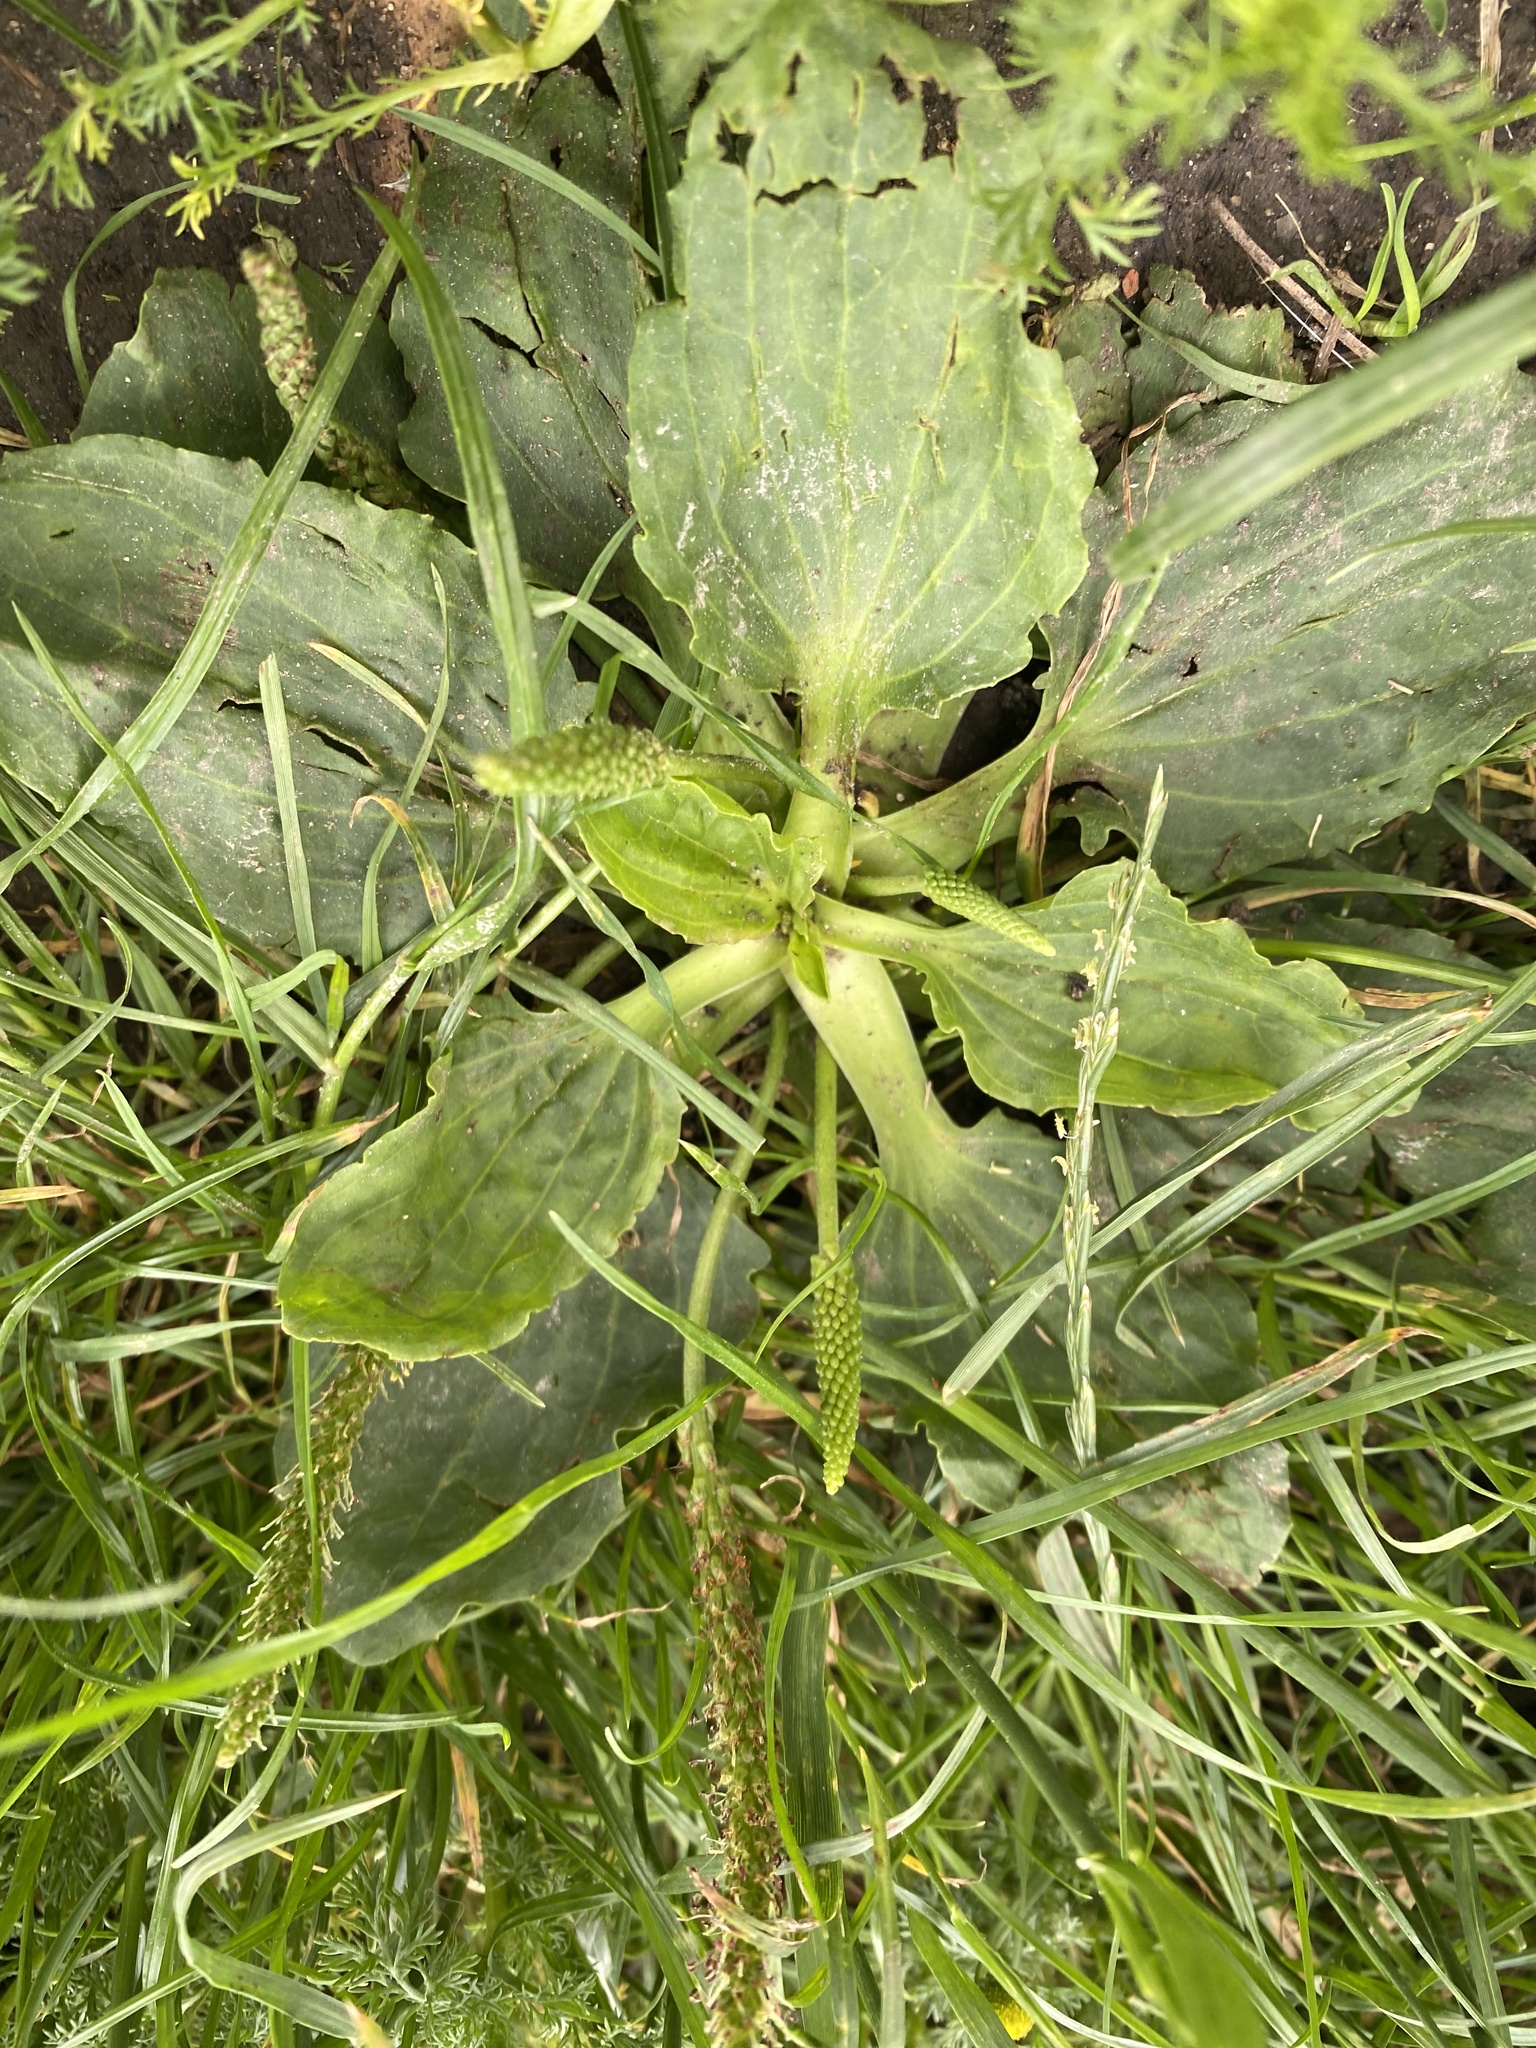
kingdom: Plantae
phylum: Tracheophyta
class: Magnoliopsida
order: Lamiales
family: Plantaginaceae
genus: Plantago
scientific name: Plantago major
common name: Common plantain
